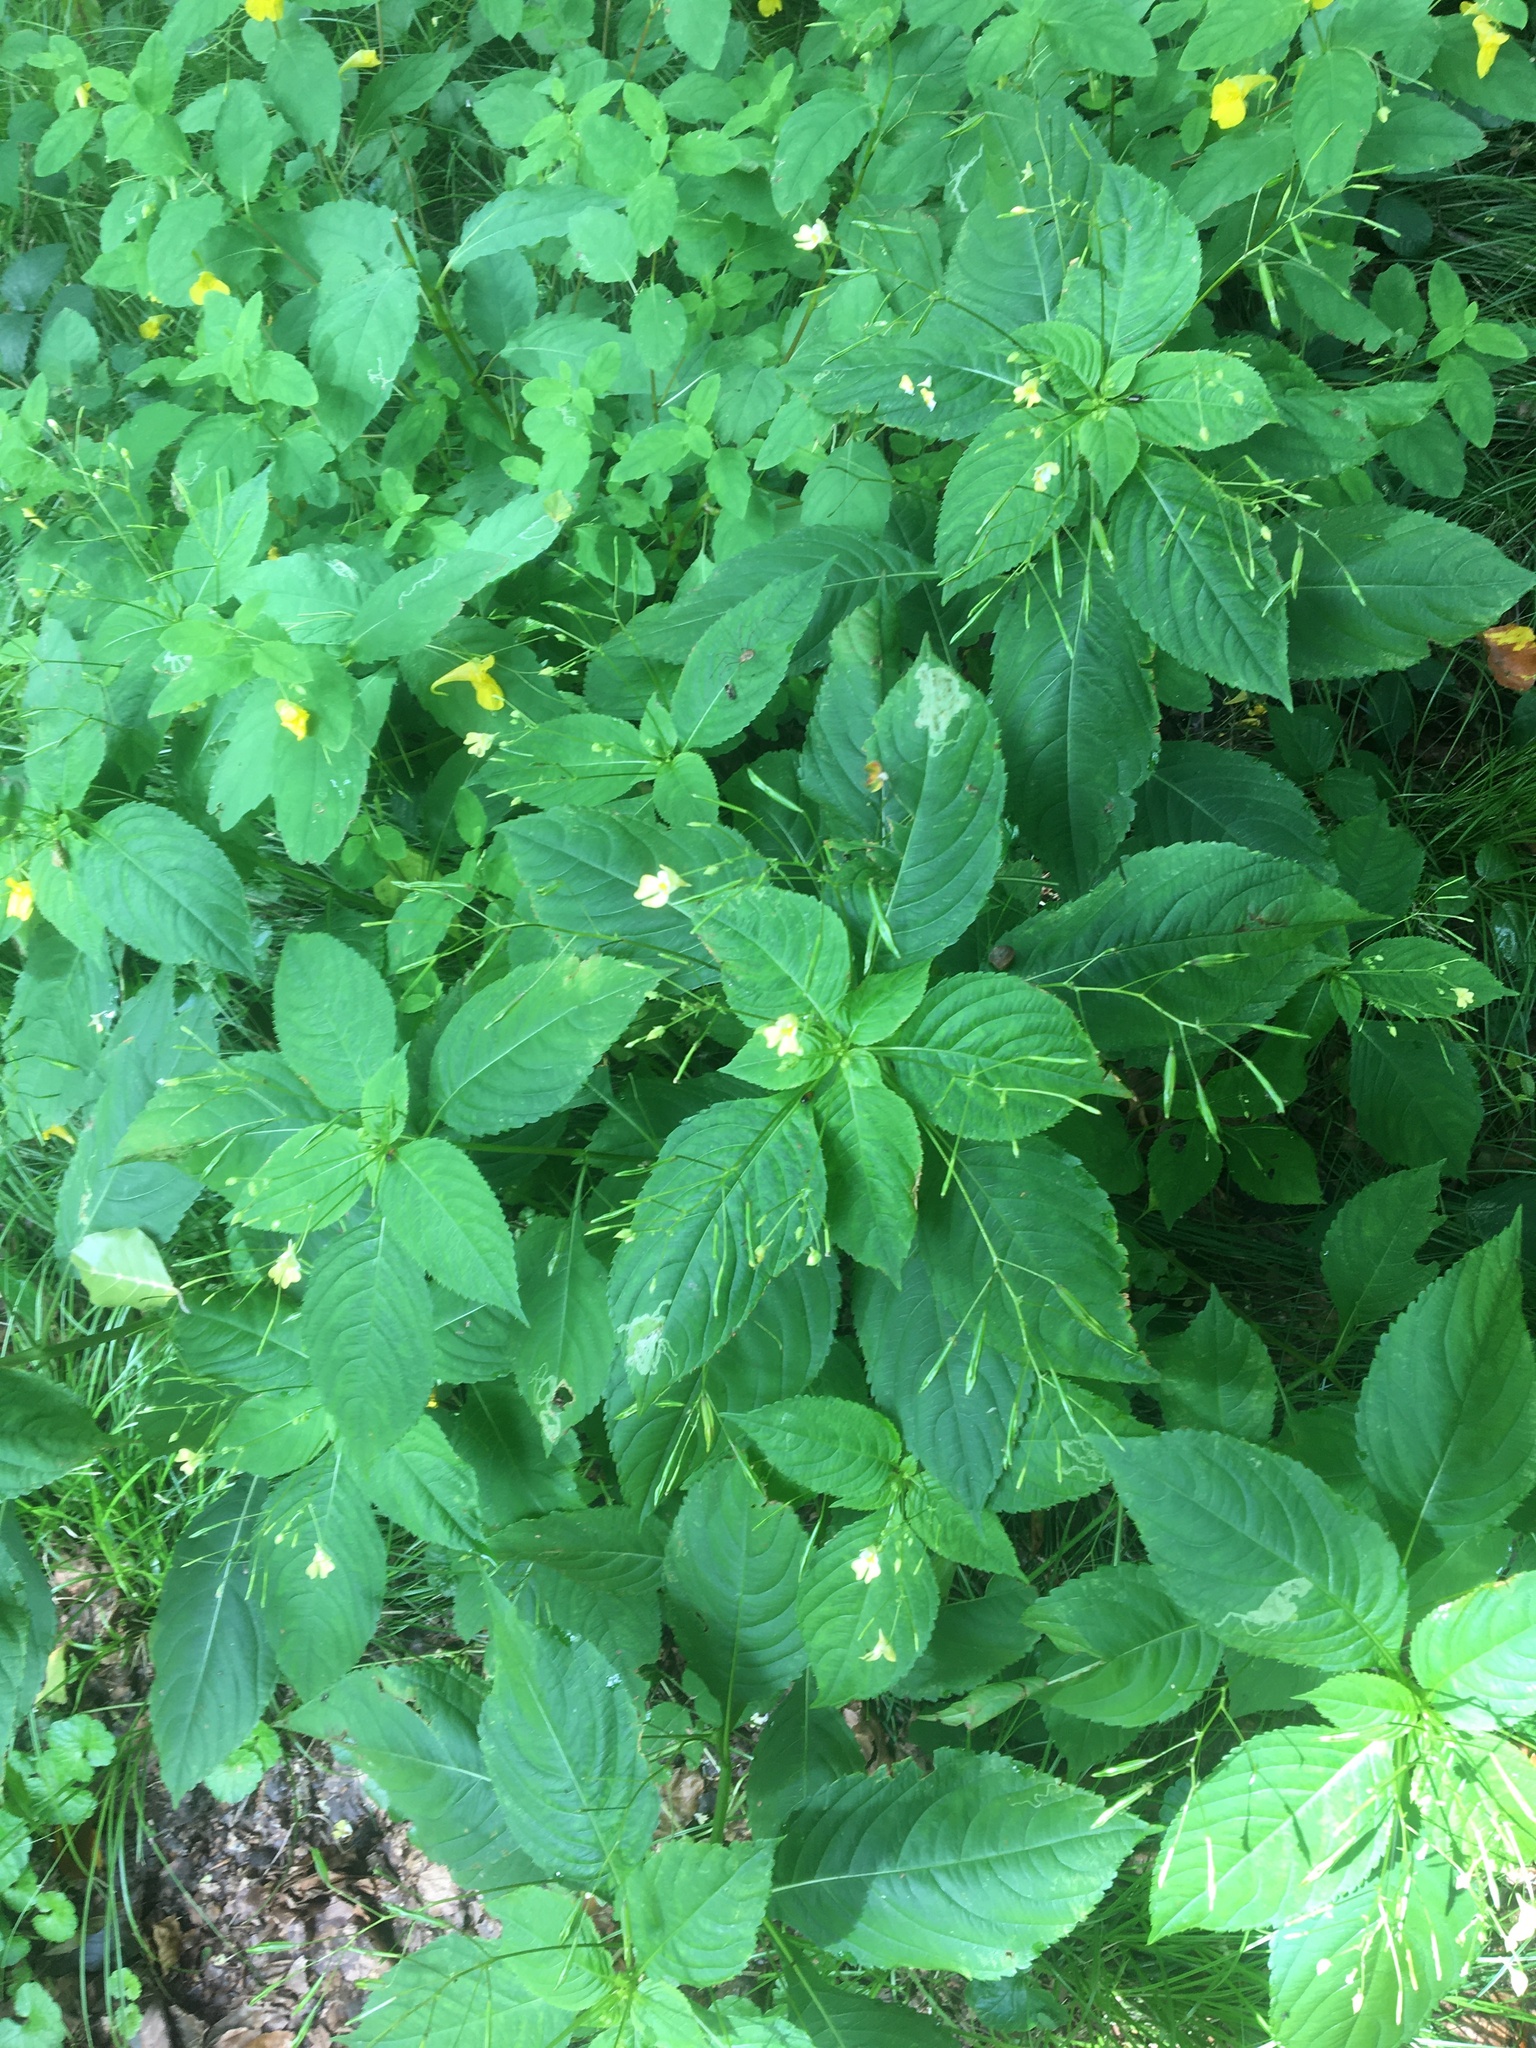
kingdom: Plantae
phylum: Tracheophyta
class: Magnoliopsida
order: Ericales
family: Balsaminaceae
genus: Impatiens
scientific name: Impatiens parviflora
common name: Small balsam
